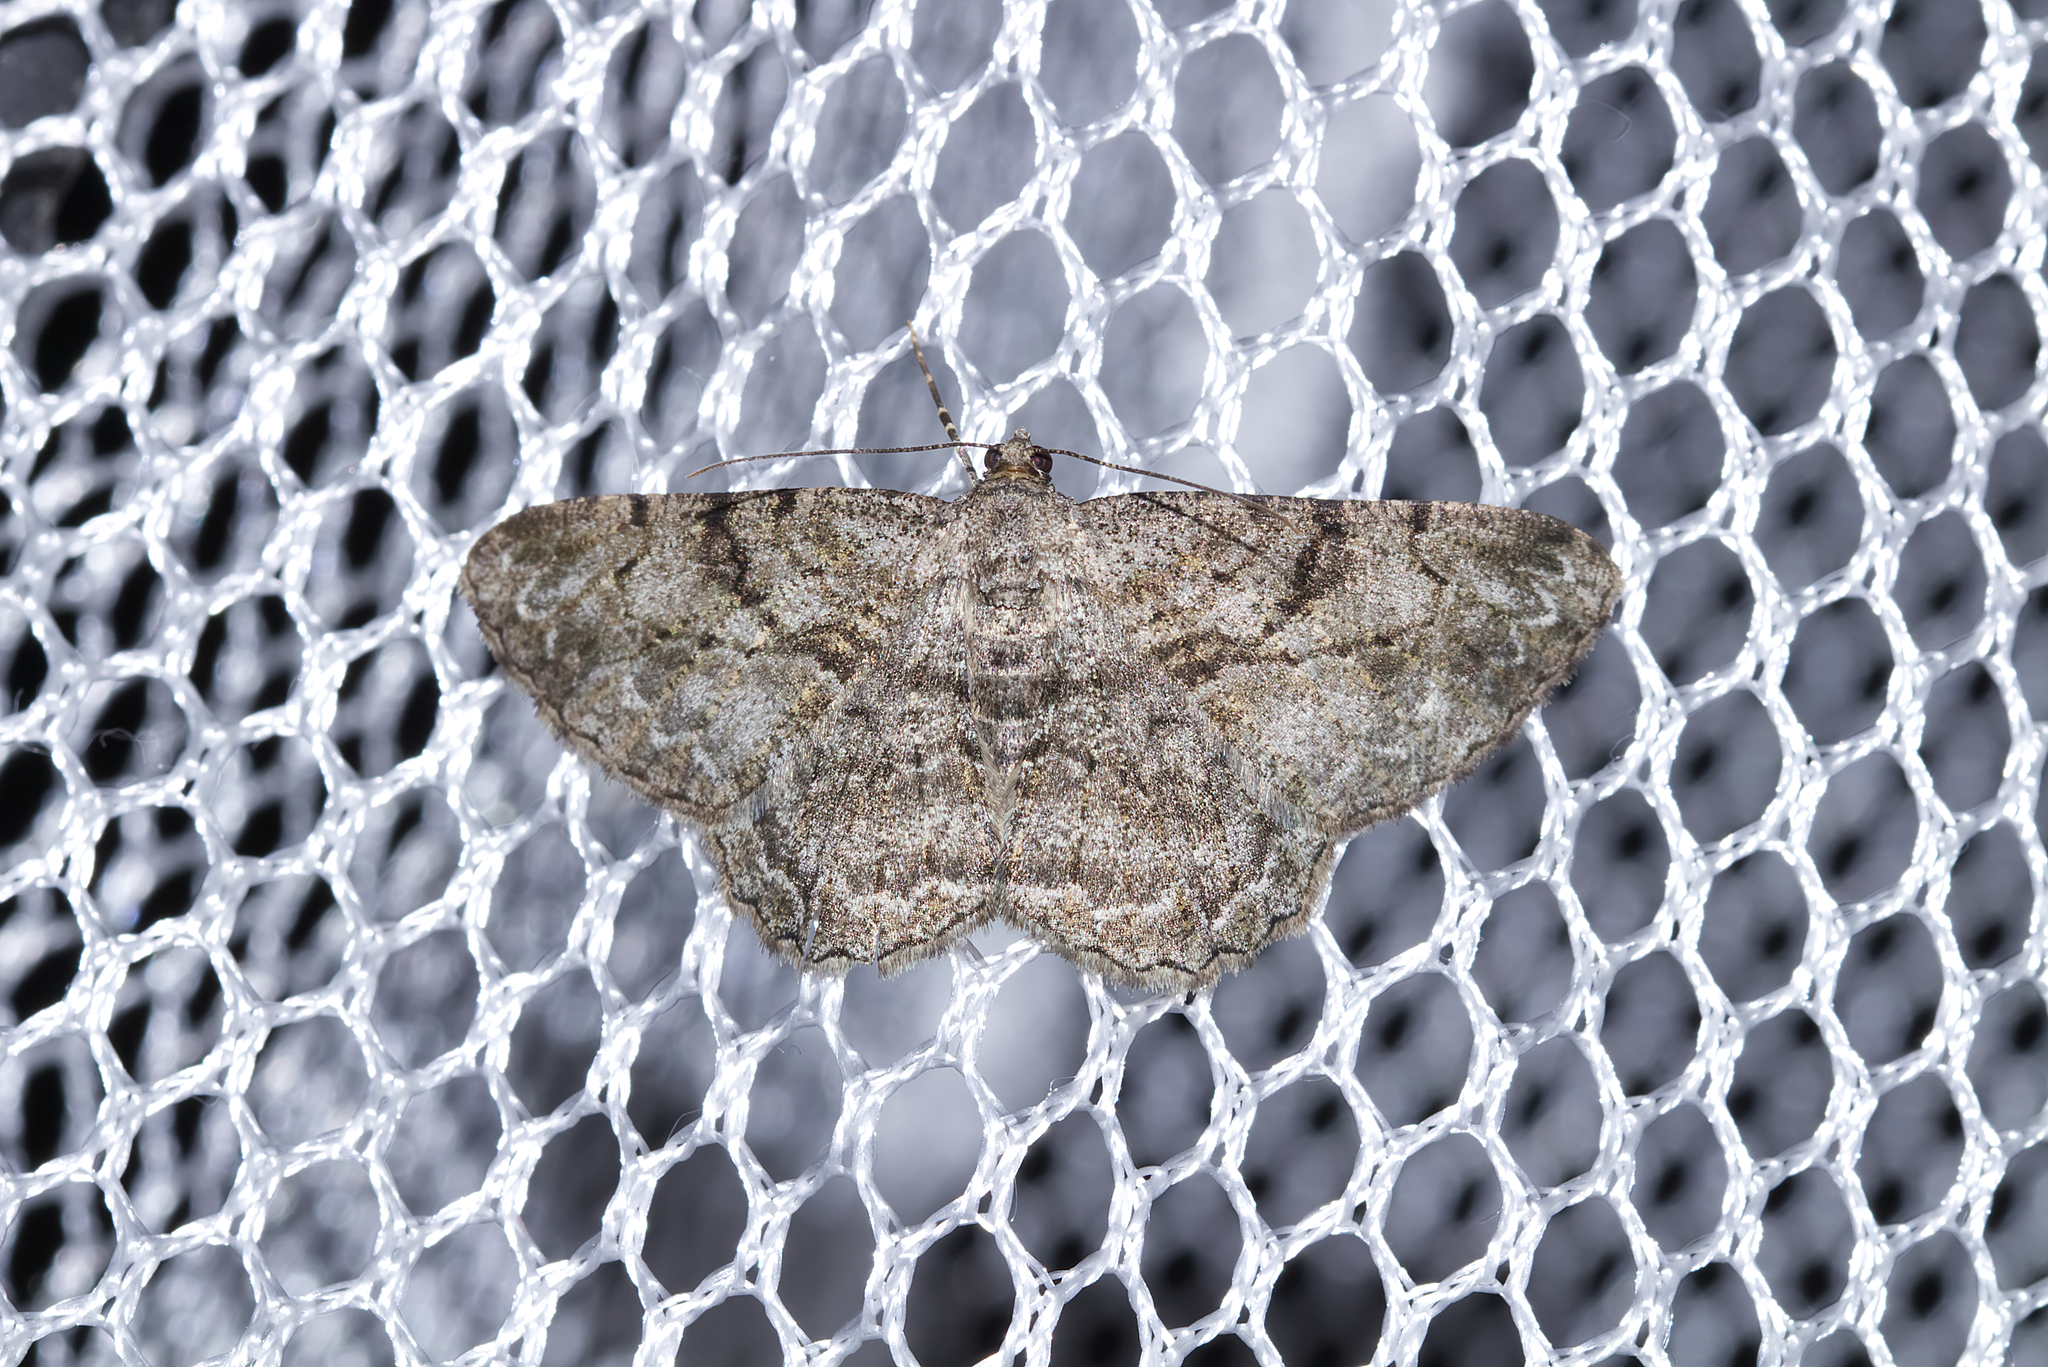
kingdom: Animalia
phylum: Arthropoda
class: Insecta
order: Lepidoptera
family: Geometridae
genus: Peribatodes
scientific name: Peribatodes rhomboidaria
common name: Willow beauty
